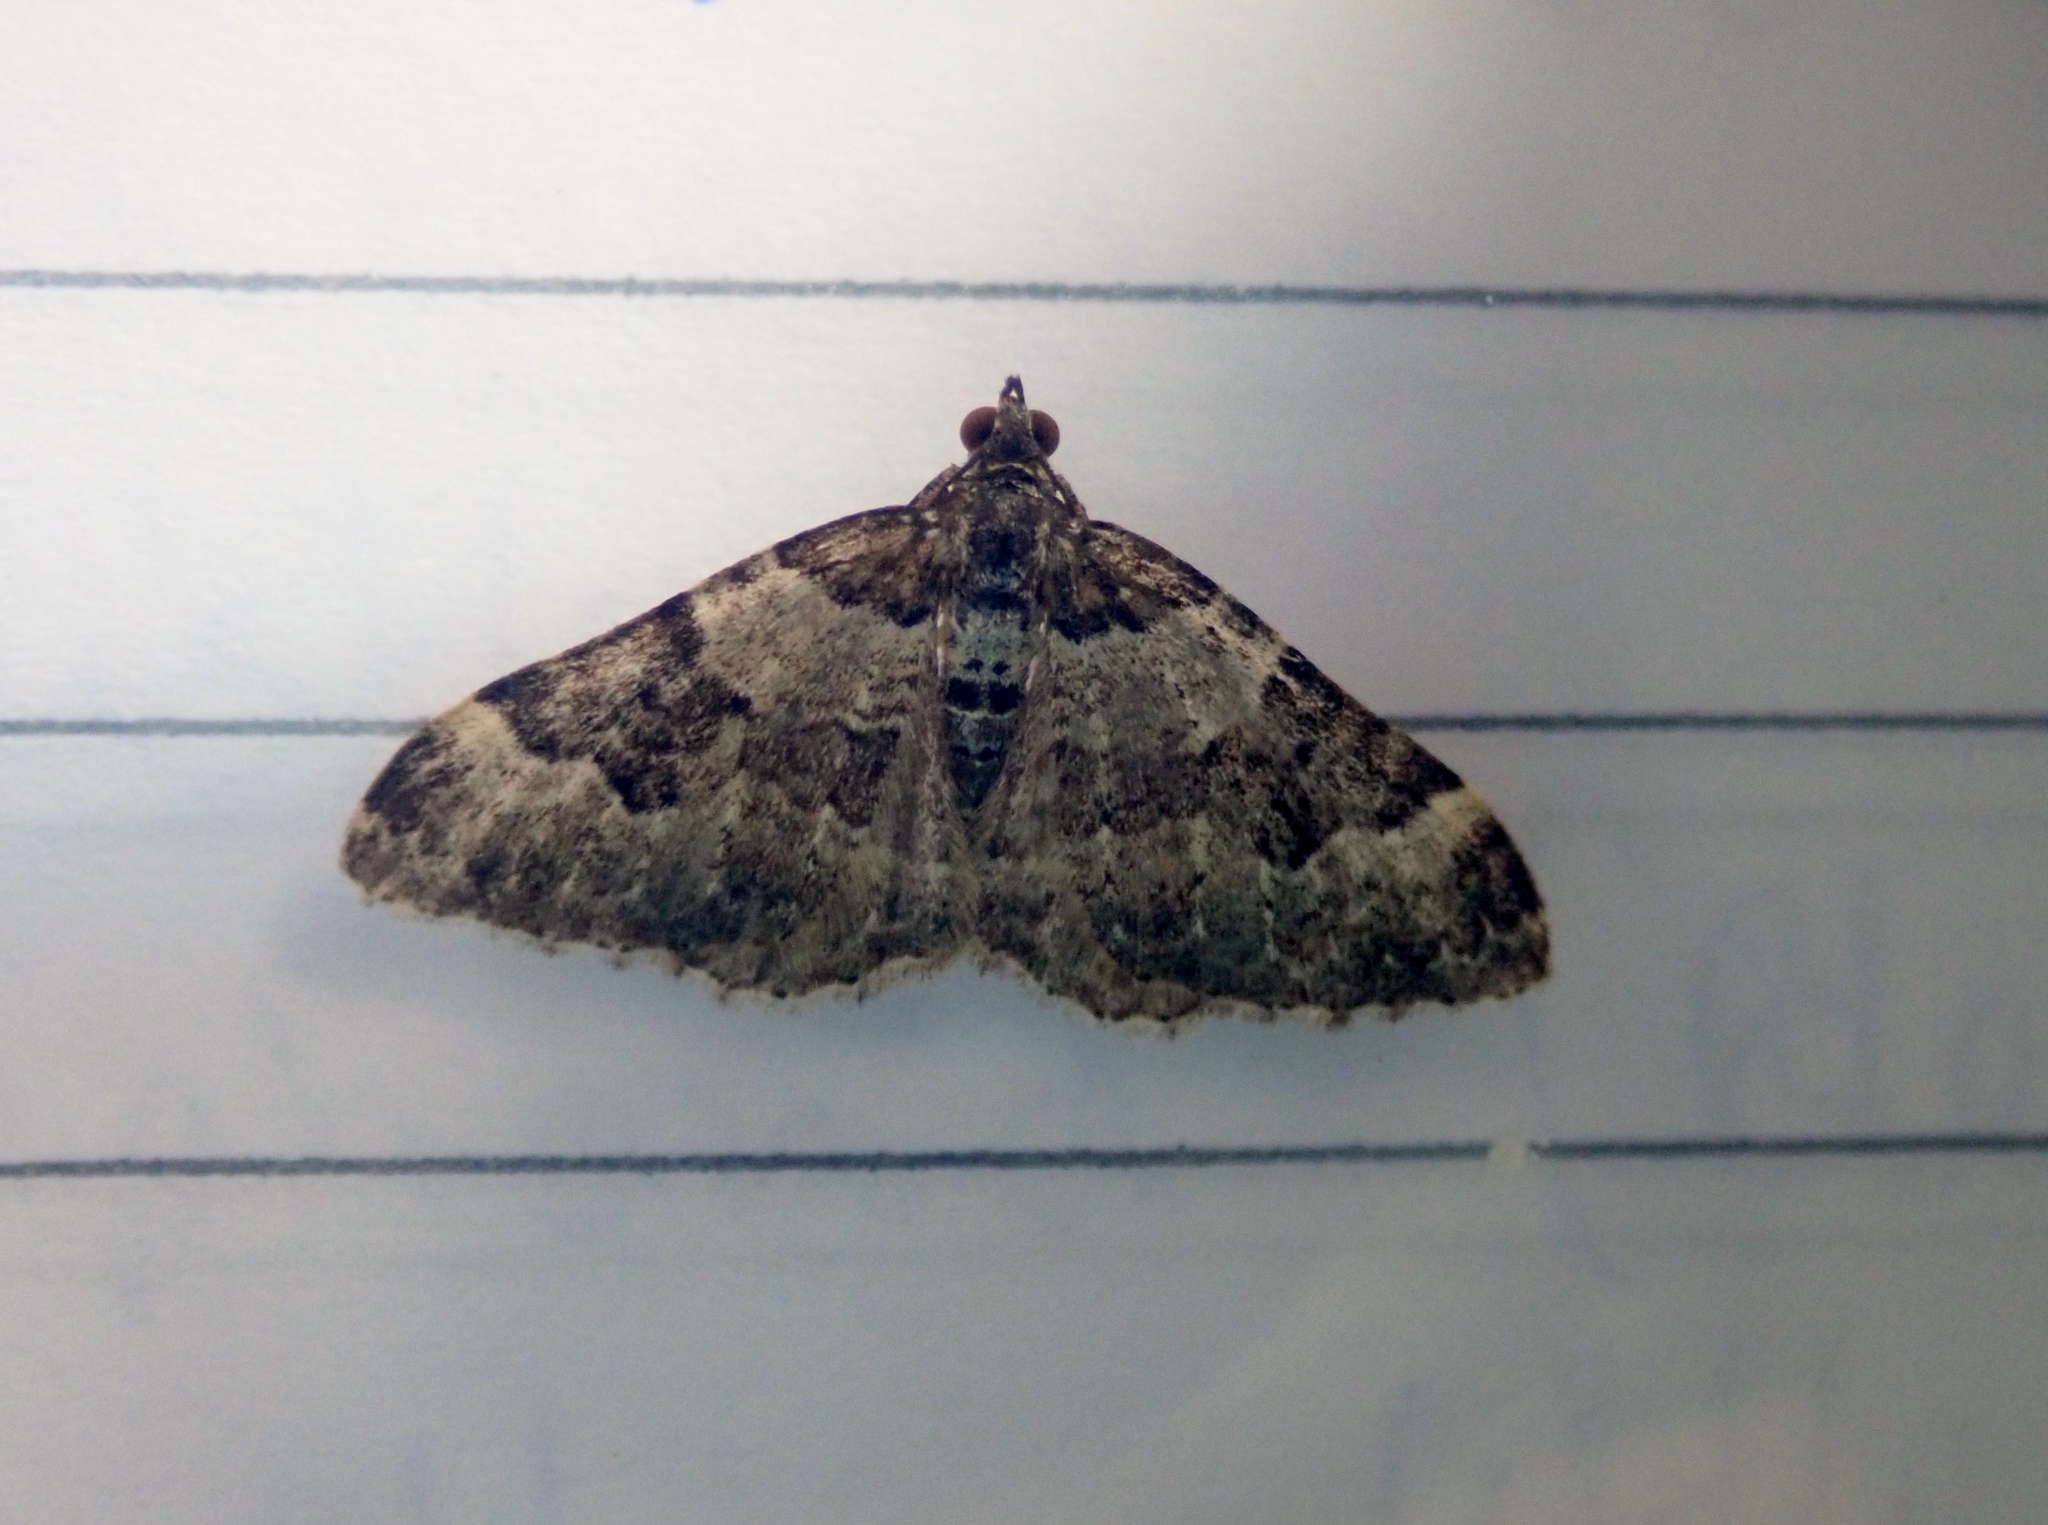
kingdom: Animalia
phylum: Arthropoda
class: Insecta
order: Lepidoptera
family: Geometridae
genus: Xanthorhoe
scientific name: Xanthorhoe fluctuata
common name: Garden carpet
